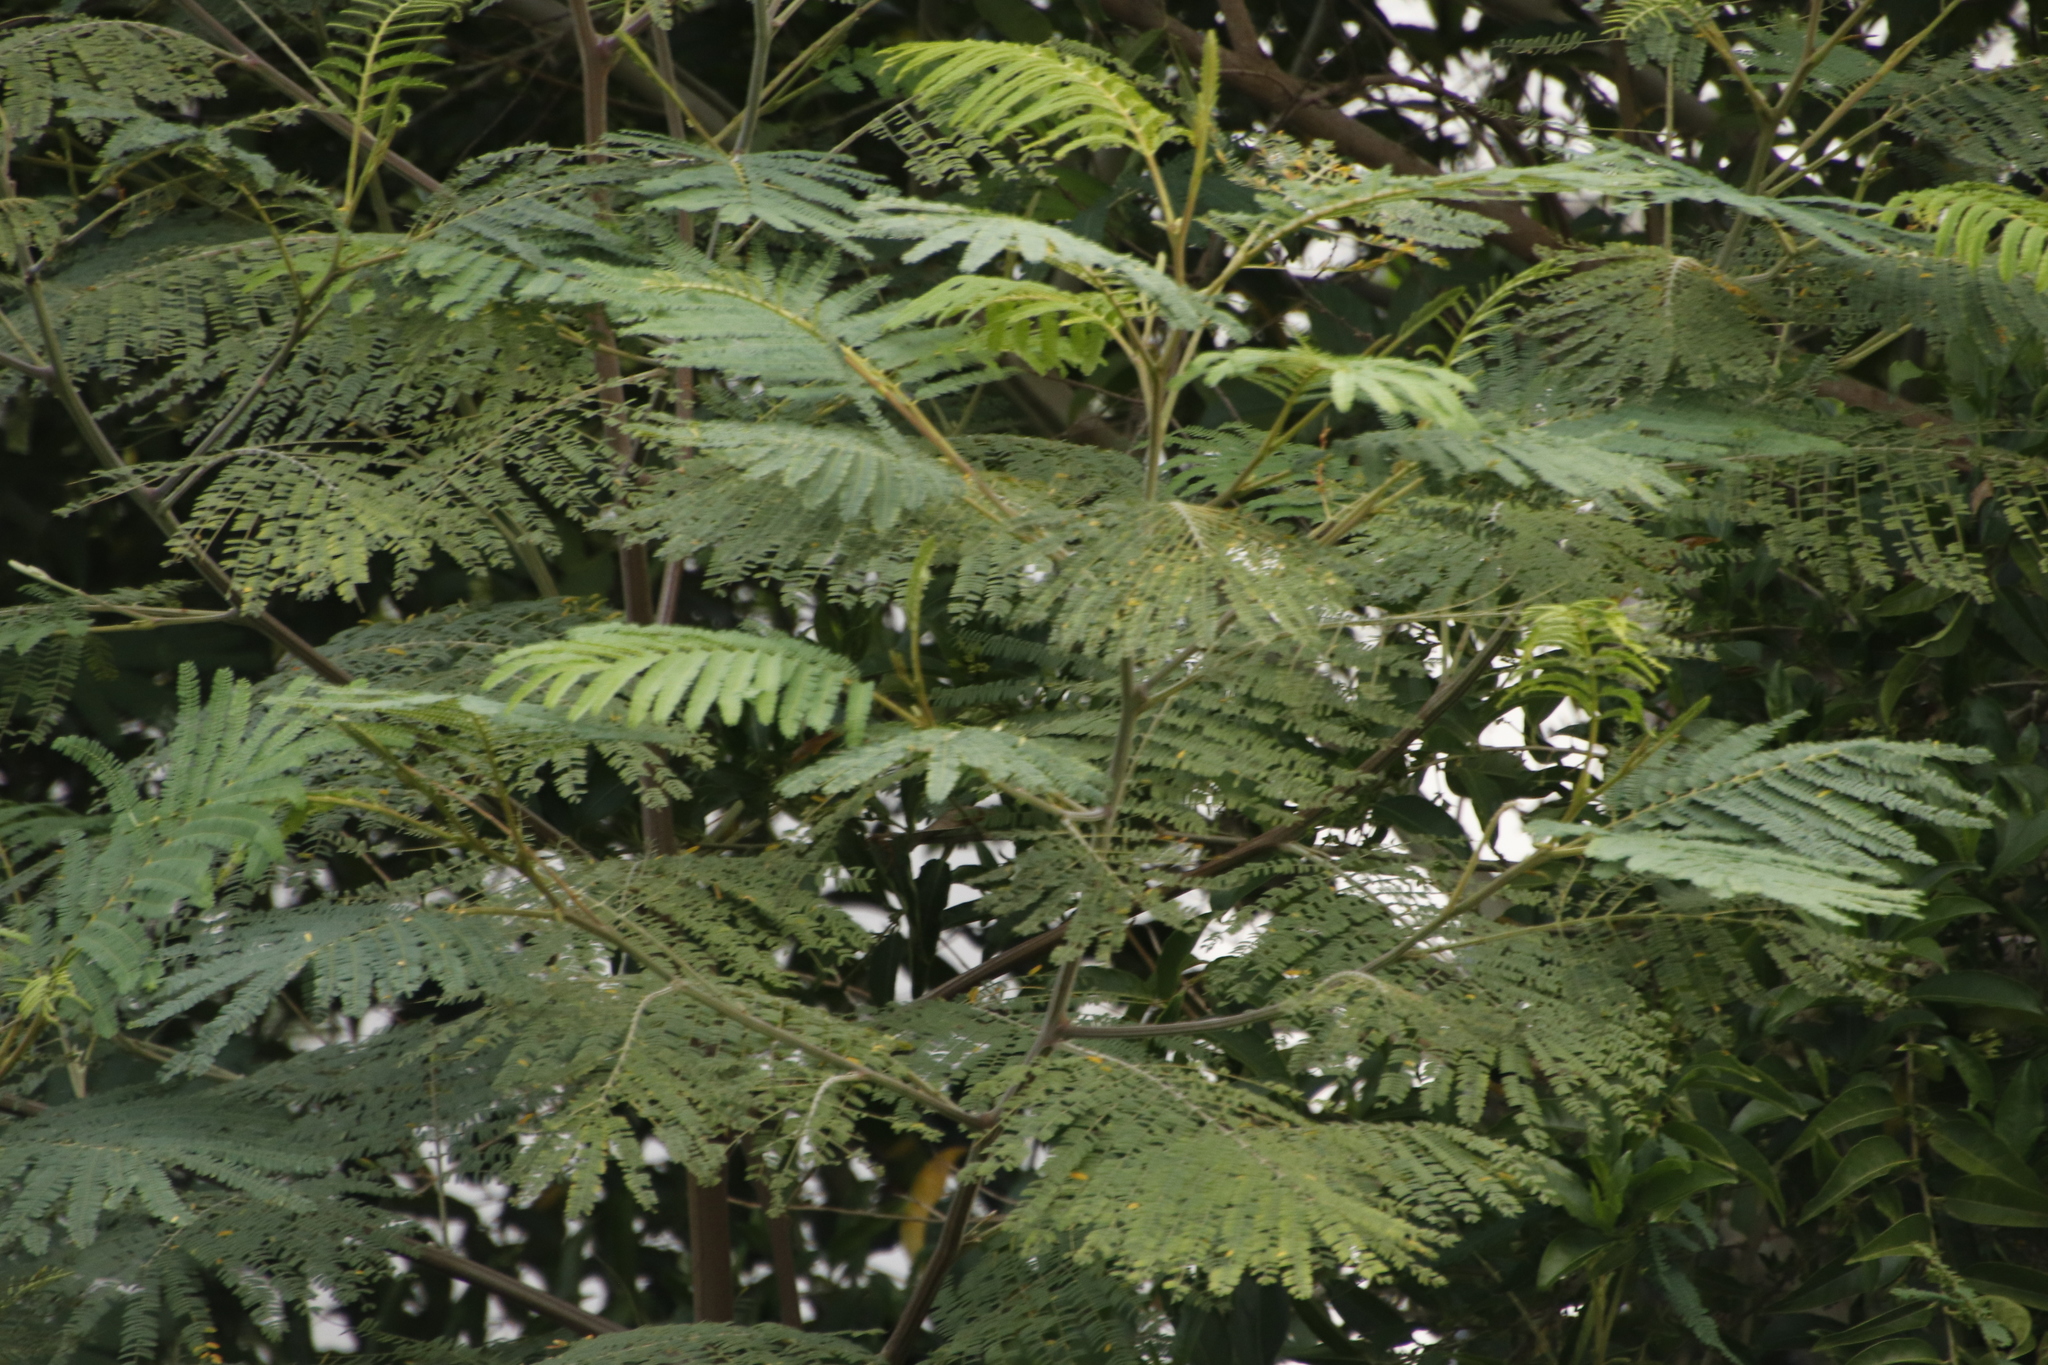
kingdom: Plantae
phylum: Tracheophyta
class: Magnoliopsida
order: Fabales
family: Fabaceae
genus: Paraserianthes
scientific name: Paraserianthes lophantha
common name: Plume albizia
